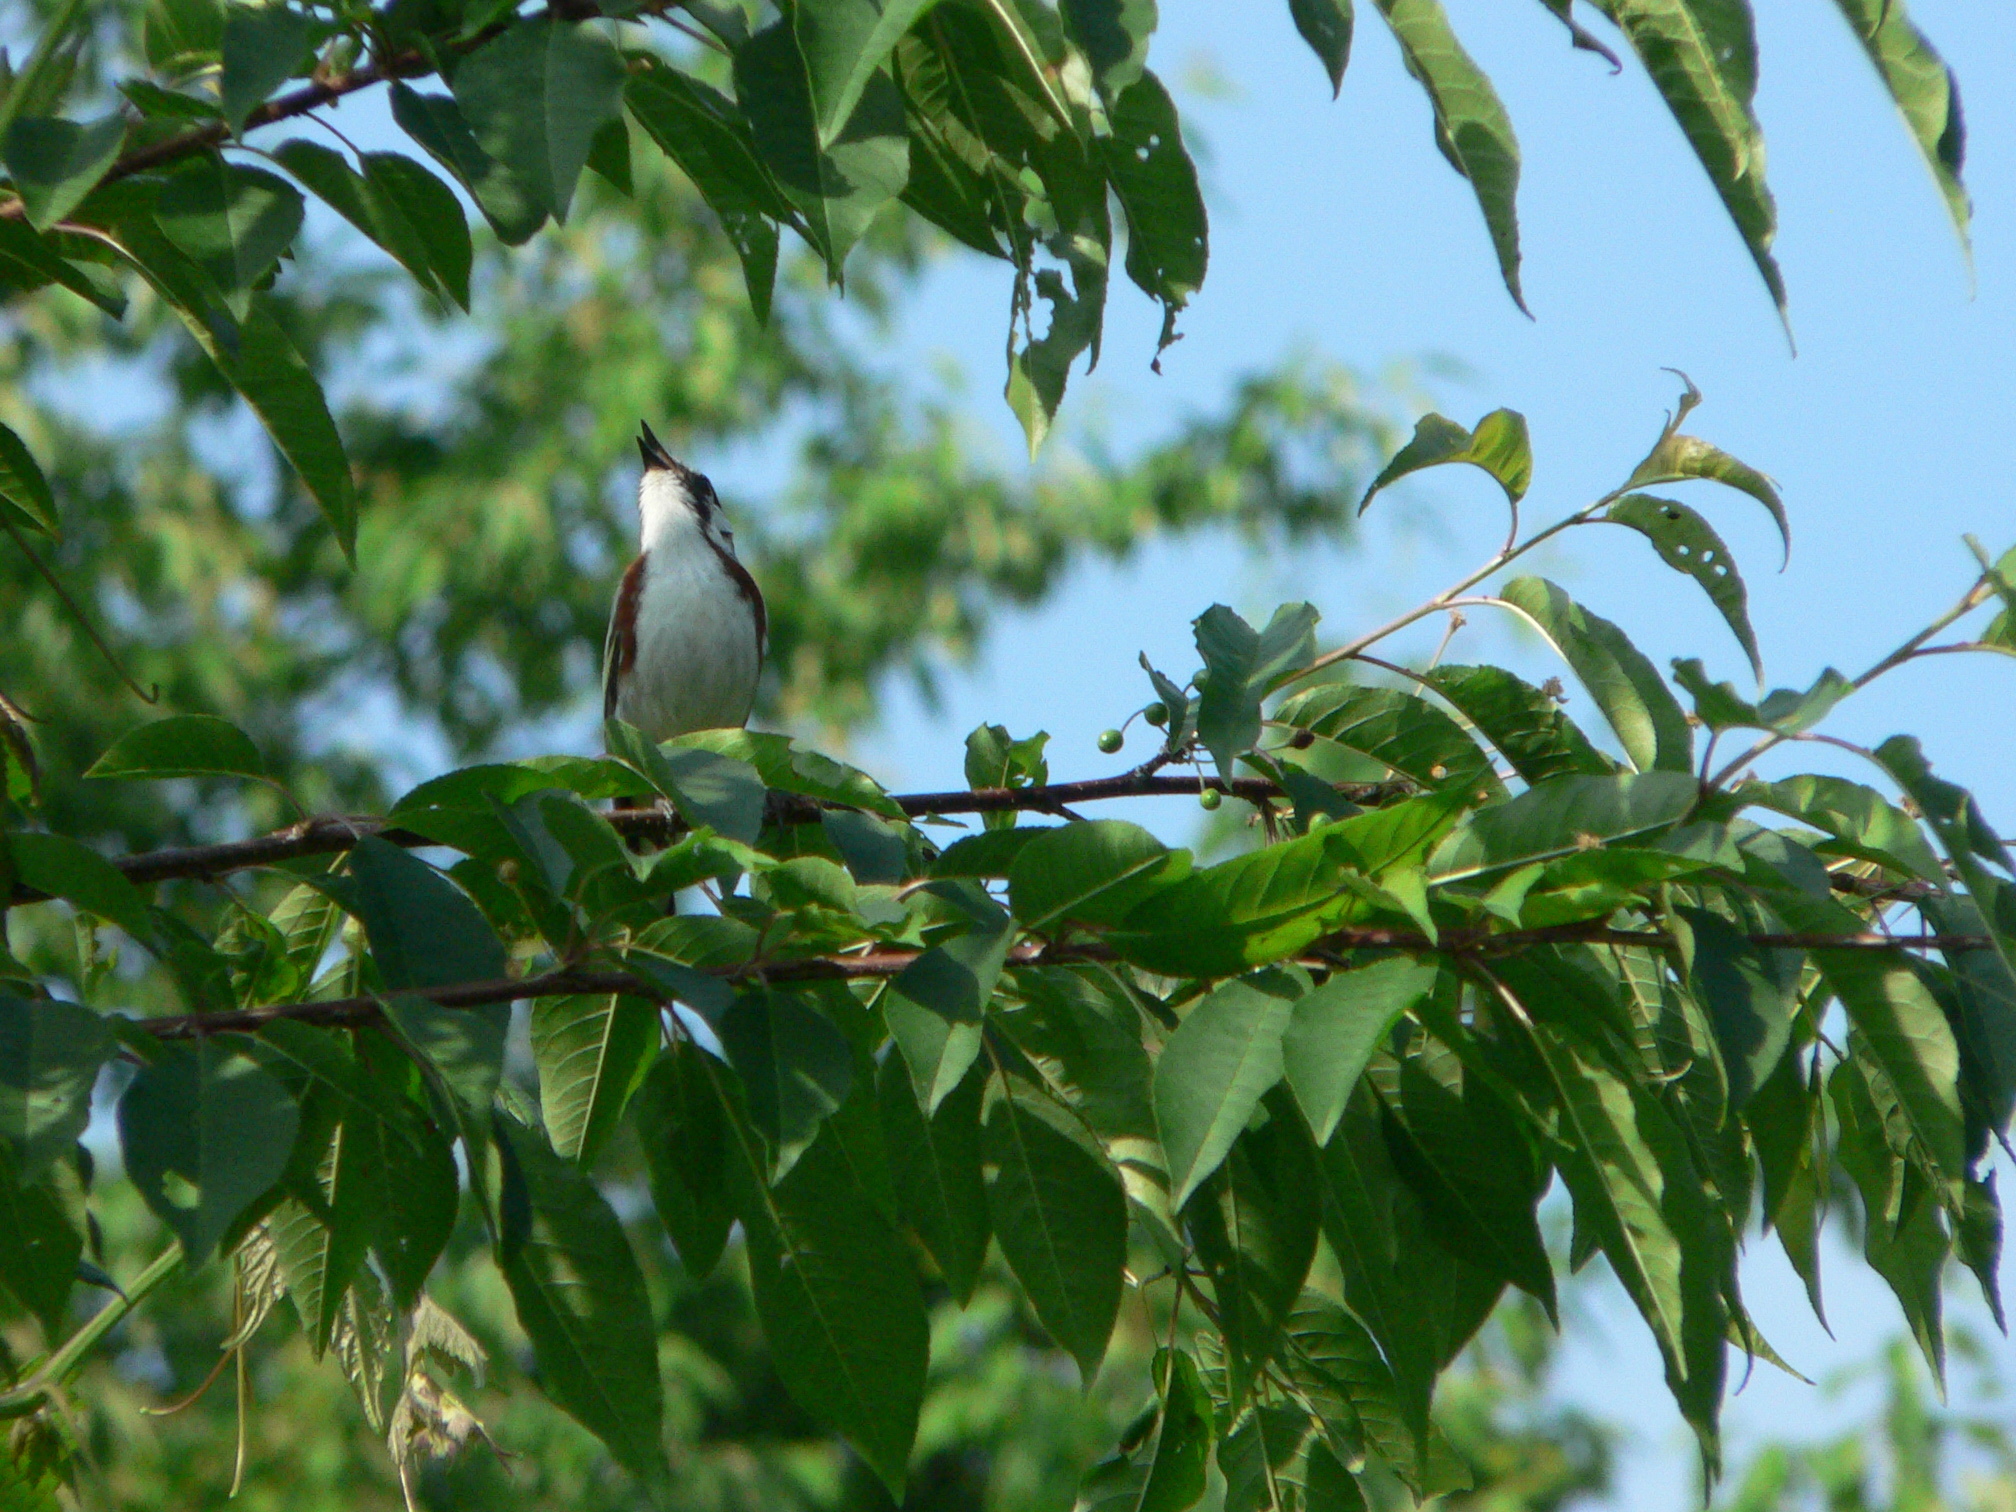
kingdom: Animalia
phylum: Chordata
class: Aves
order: Passeriformes
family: Parulidae
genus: Setophaga
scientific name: Setophaga pensylvanica
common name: Chestnut-sided warbler
